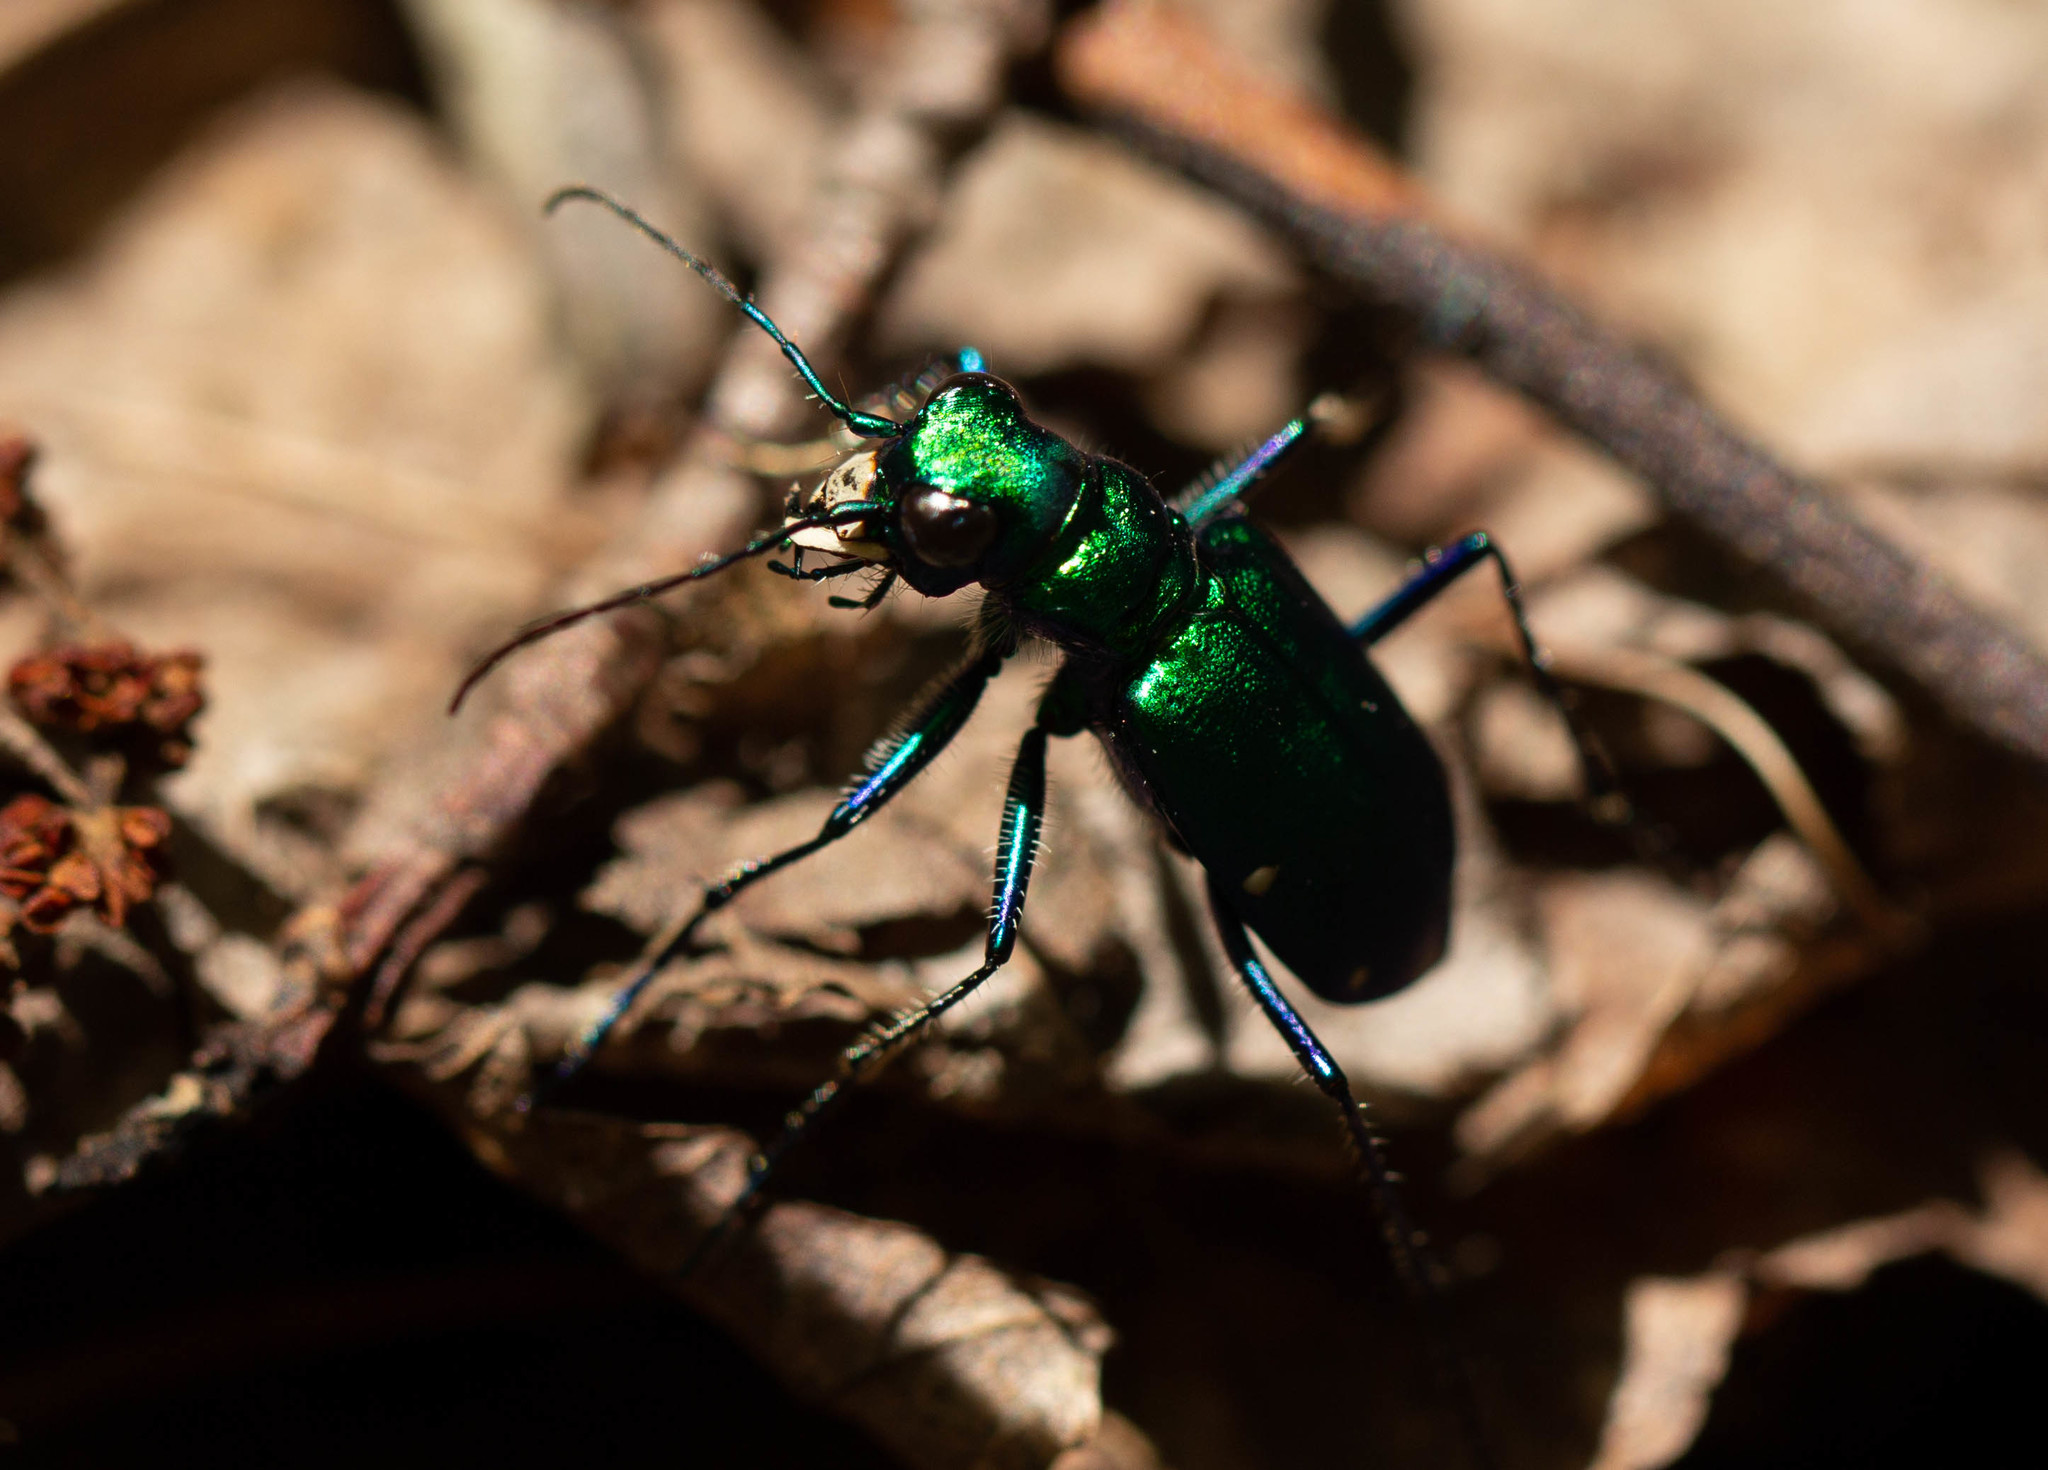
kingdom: Animalia
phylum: Arthropoda
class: Insecta
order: Coleoptera
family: Carabidae
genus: Cicindela
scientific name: Cicindela sexguttata
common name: Six-spotted tiger beetle
